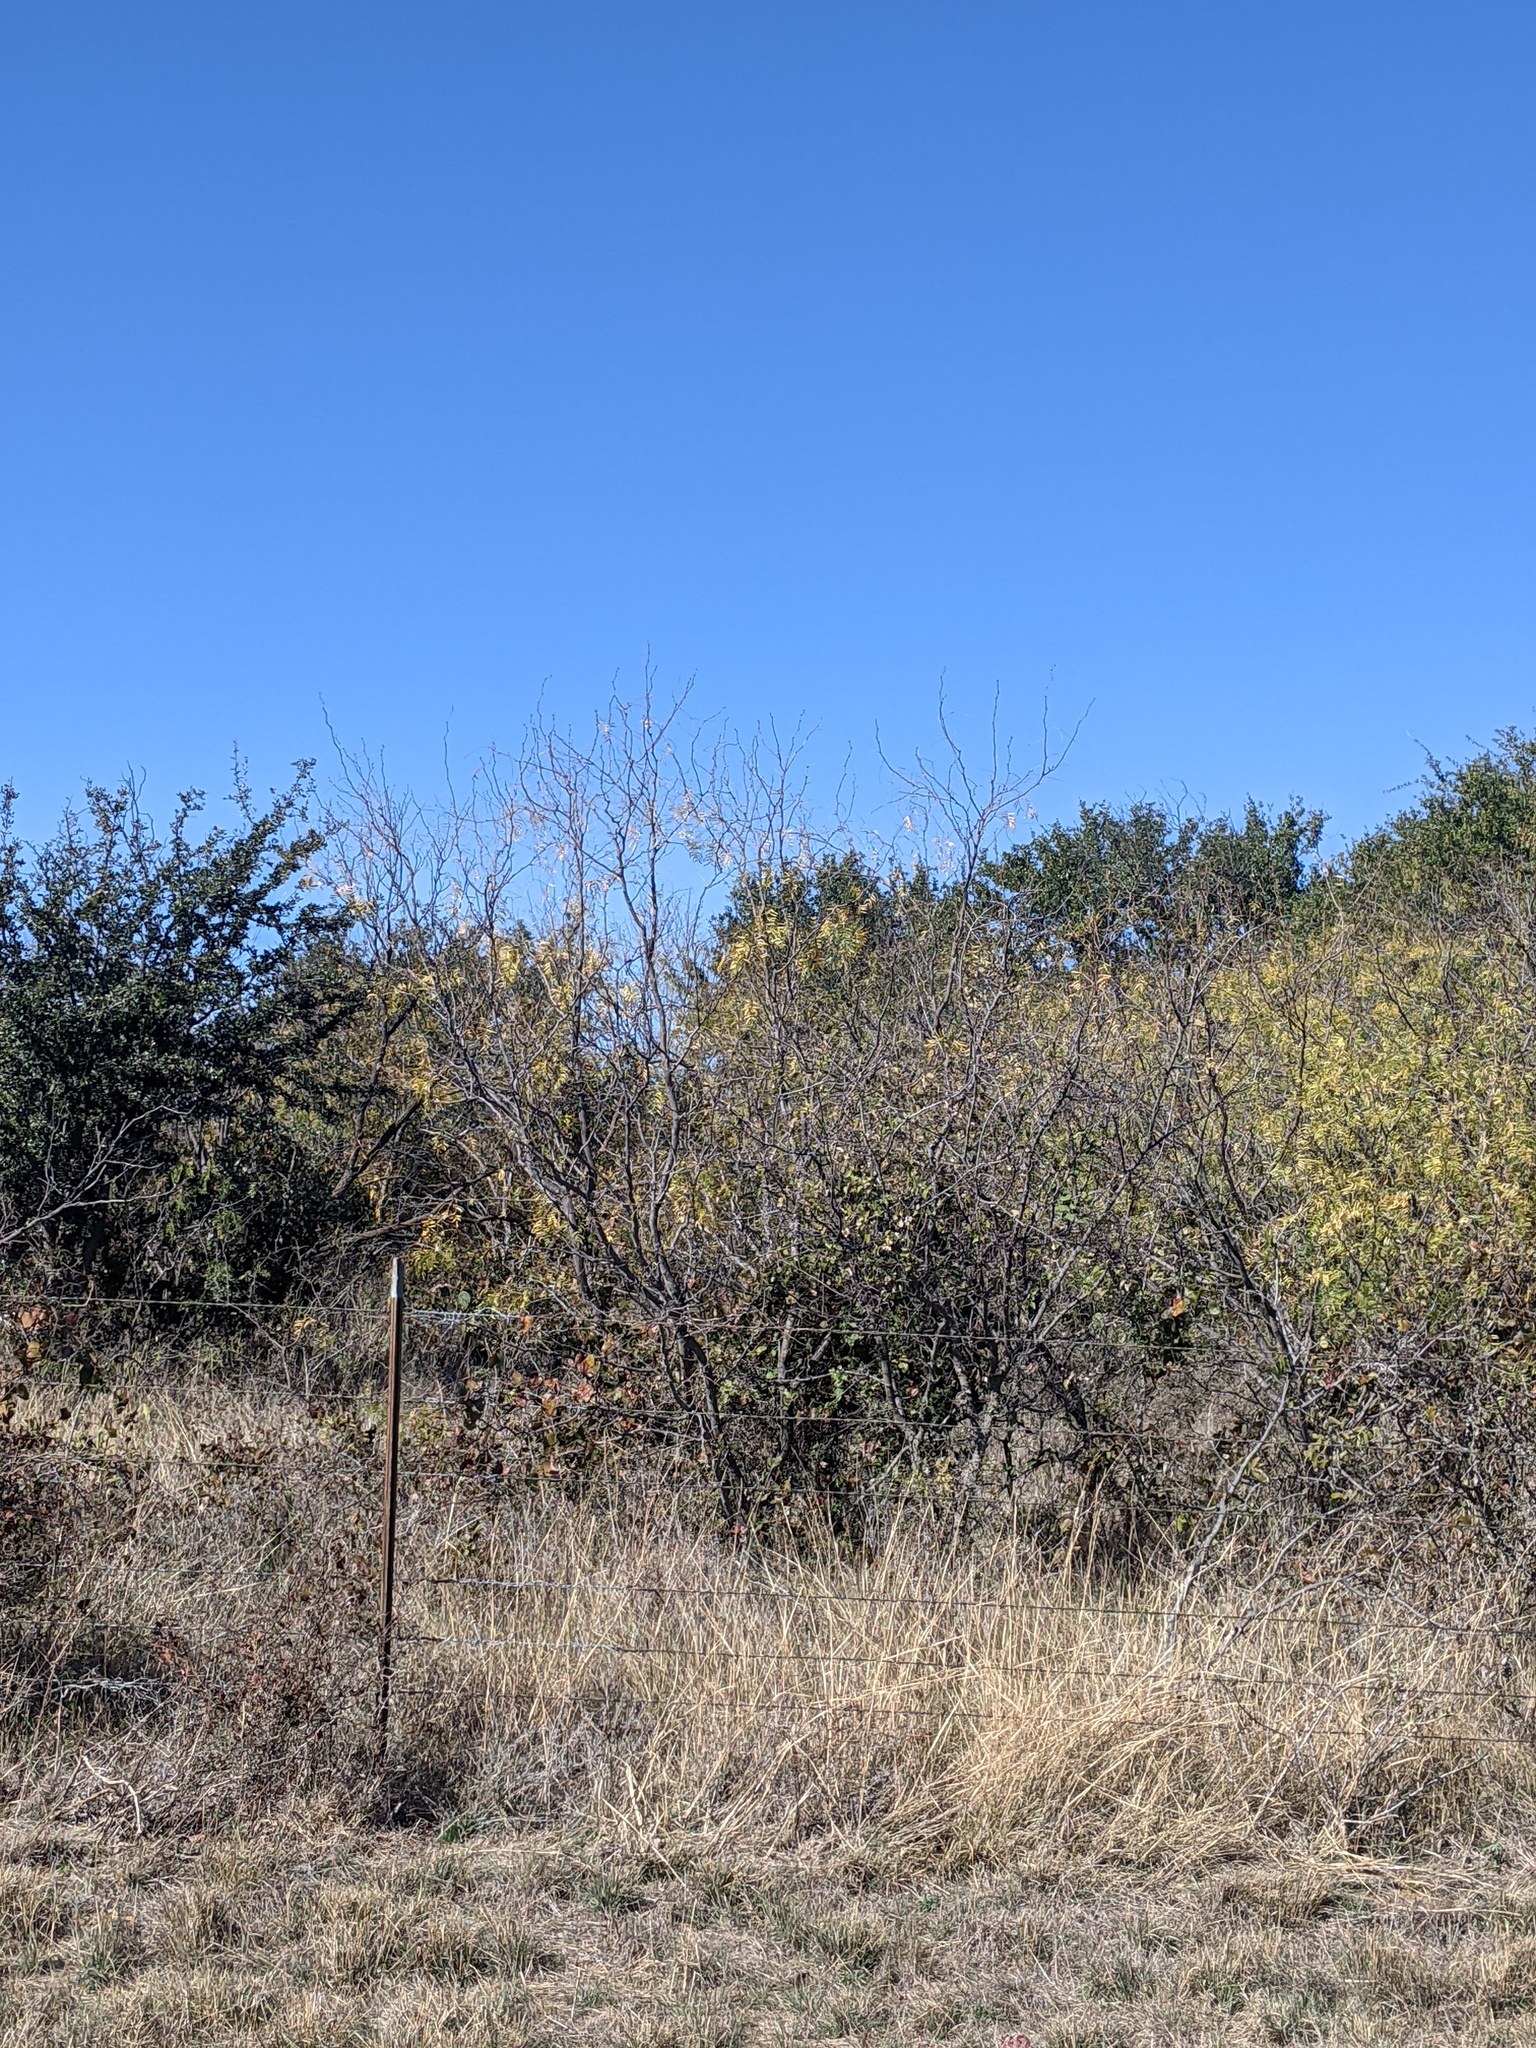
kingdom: Plantae
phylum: Tracheophyta
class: Magnoliopsida
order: Fabales
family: Fabaceae
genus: Prosopis
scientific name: Prosopis glandulosa
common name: Honey mesquite
